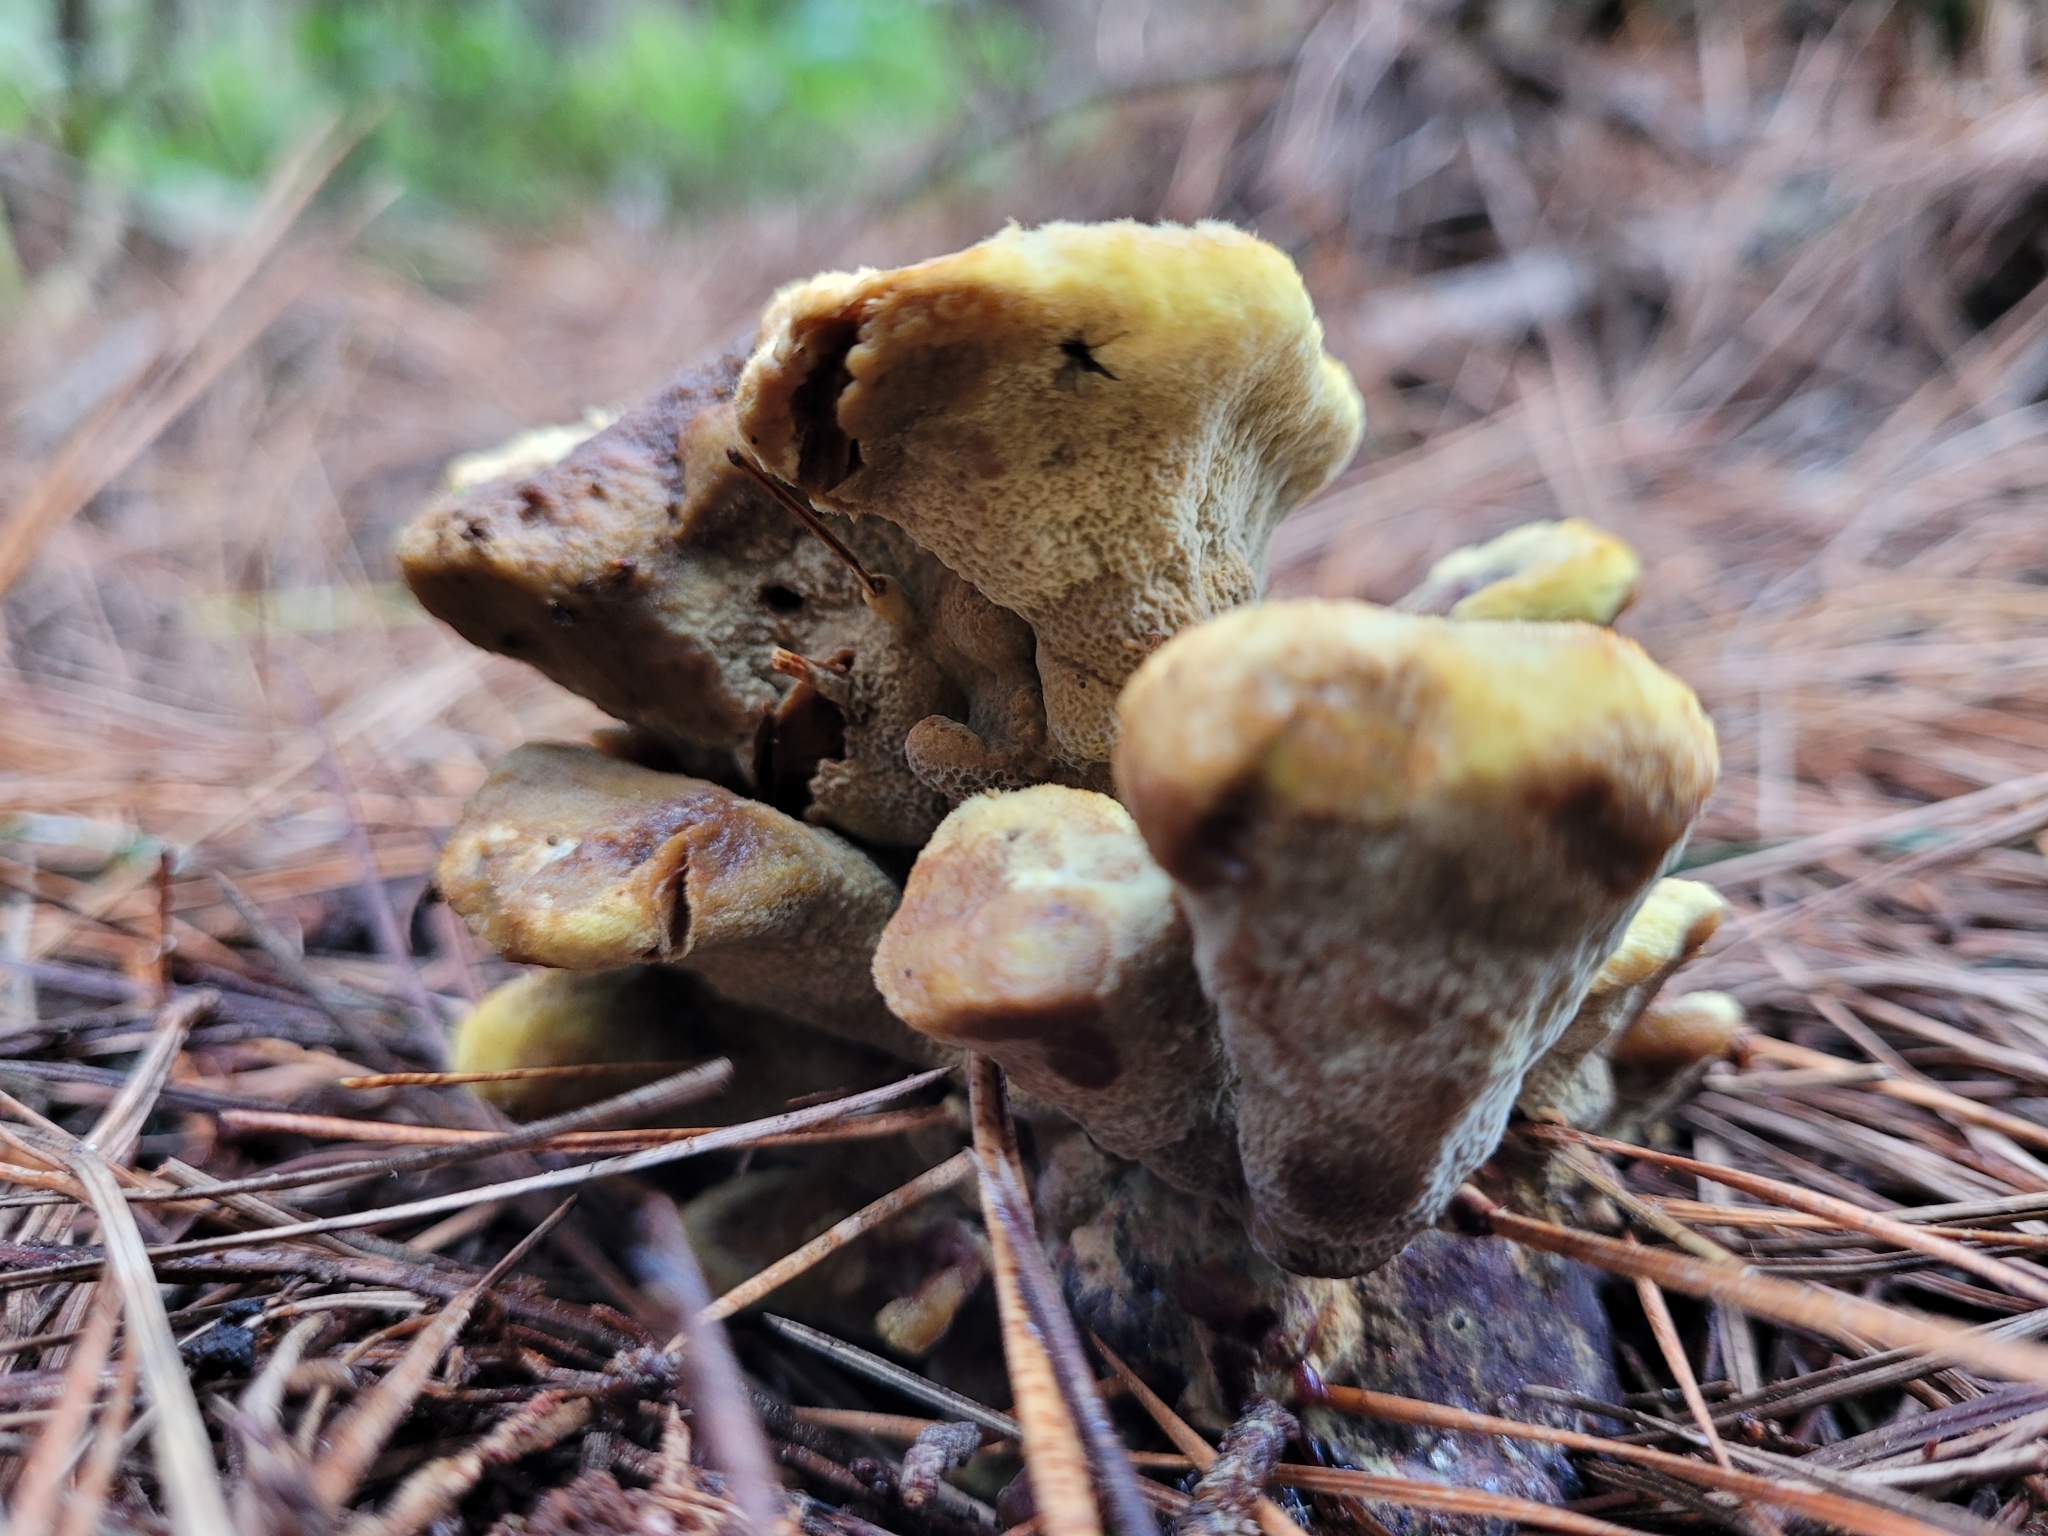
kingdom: Fungi
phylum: Basidiomycota
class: Agaricomycetes
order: Polyporales
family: Laetiporaceae
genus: Phaeolus
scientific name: Phaeolus schweinitzii
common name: Dyer's mazegill
